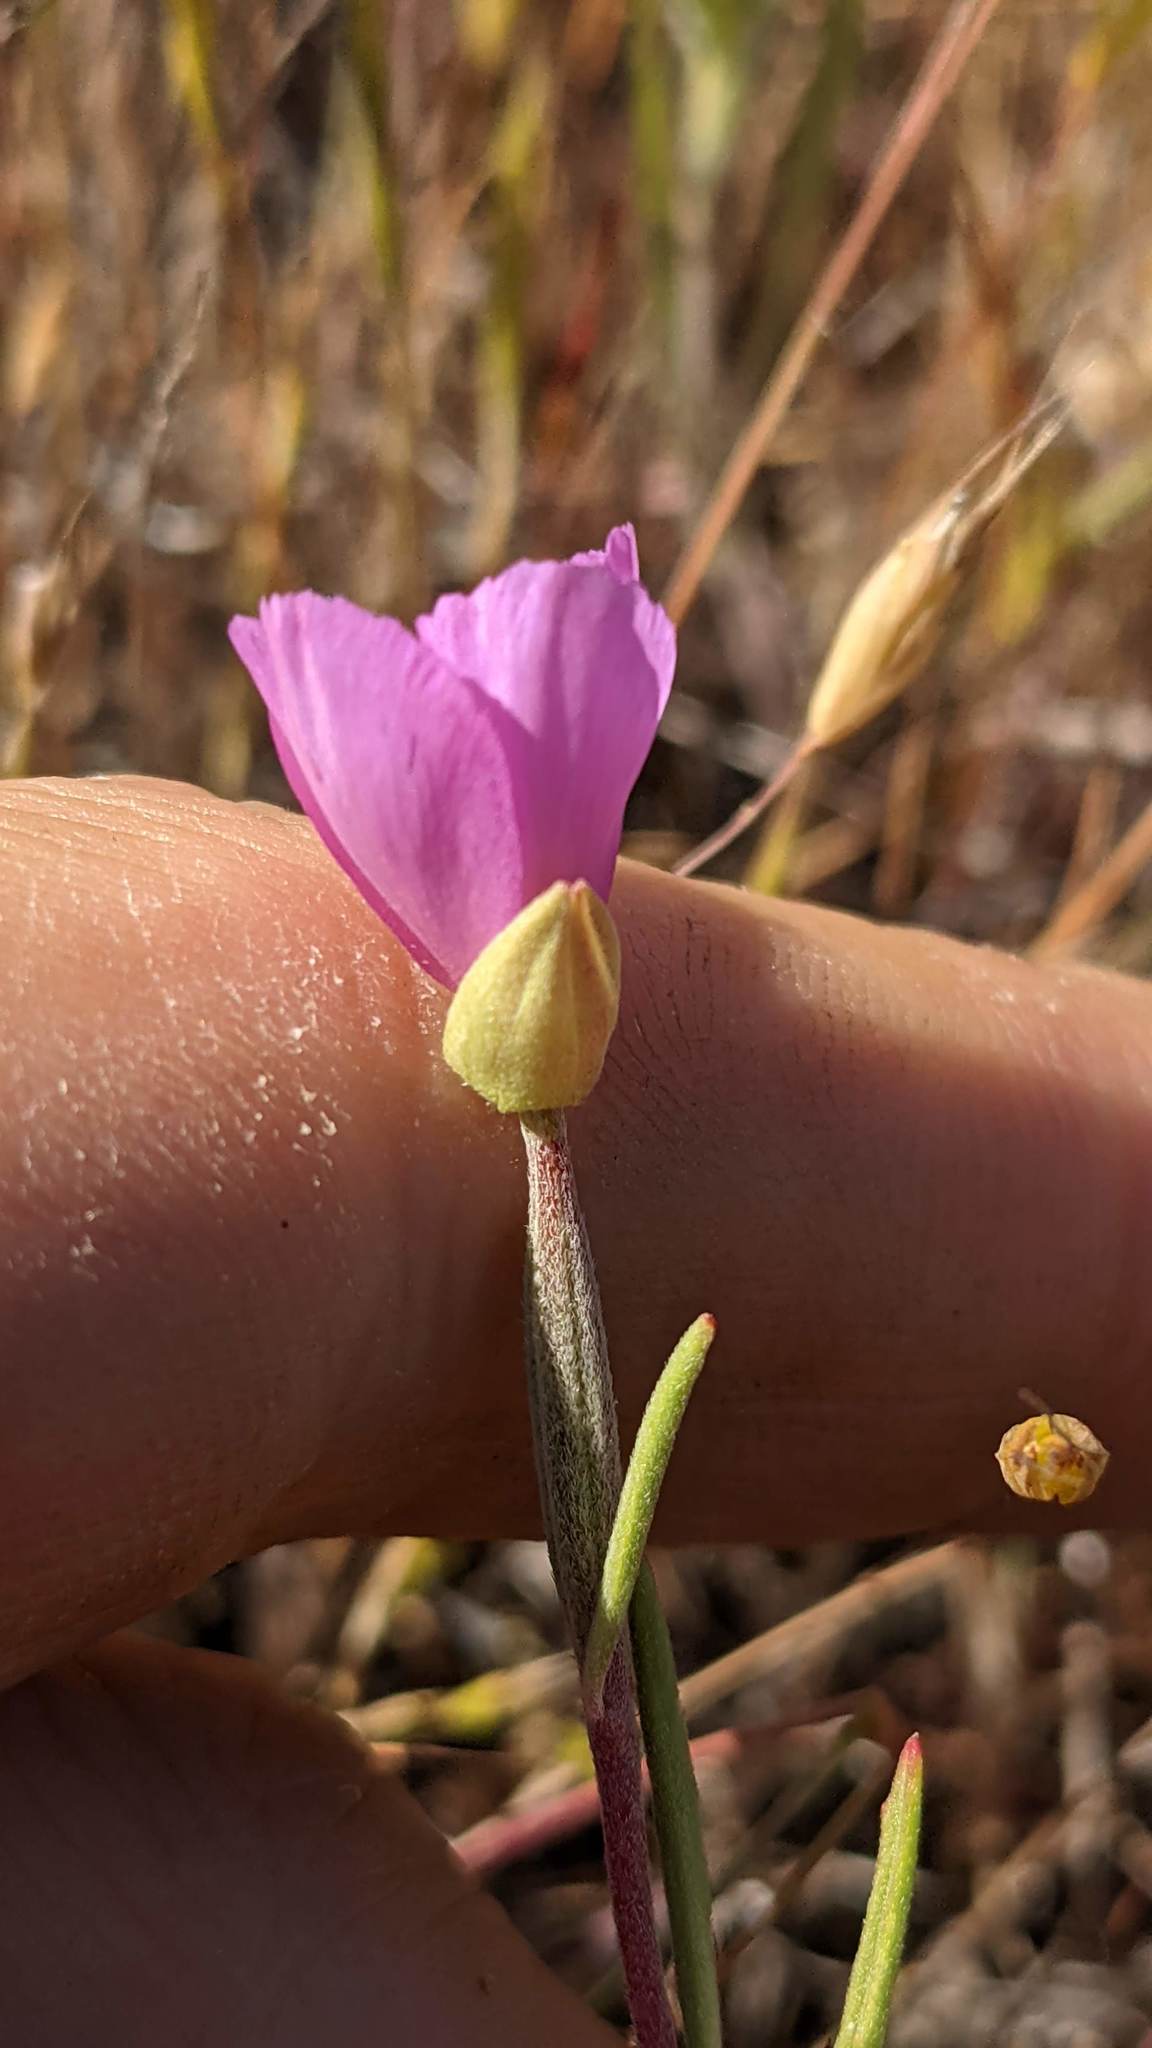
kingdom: Plantae
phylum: Tracheophyta
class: Magnoliopsida
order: Myrtales
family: Onagraceae
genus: Clarkia
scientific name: Clarkia gracilis
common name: Graceful clarkia
